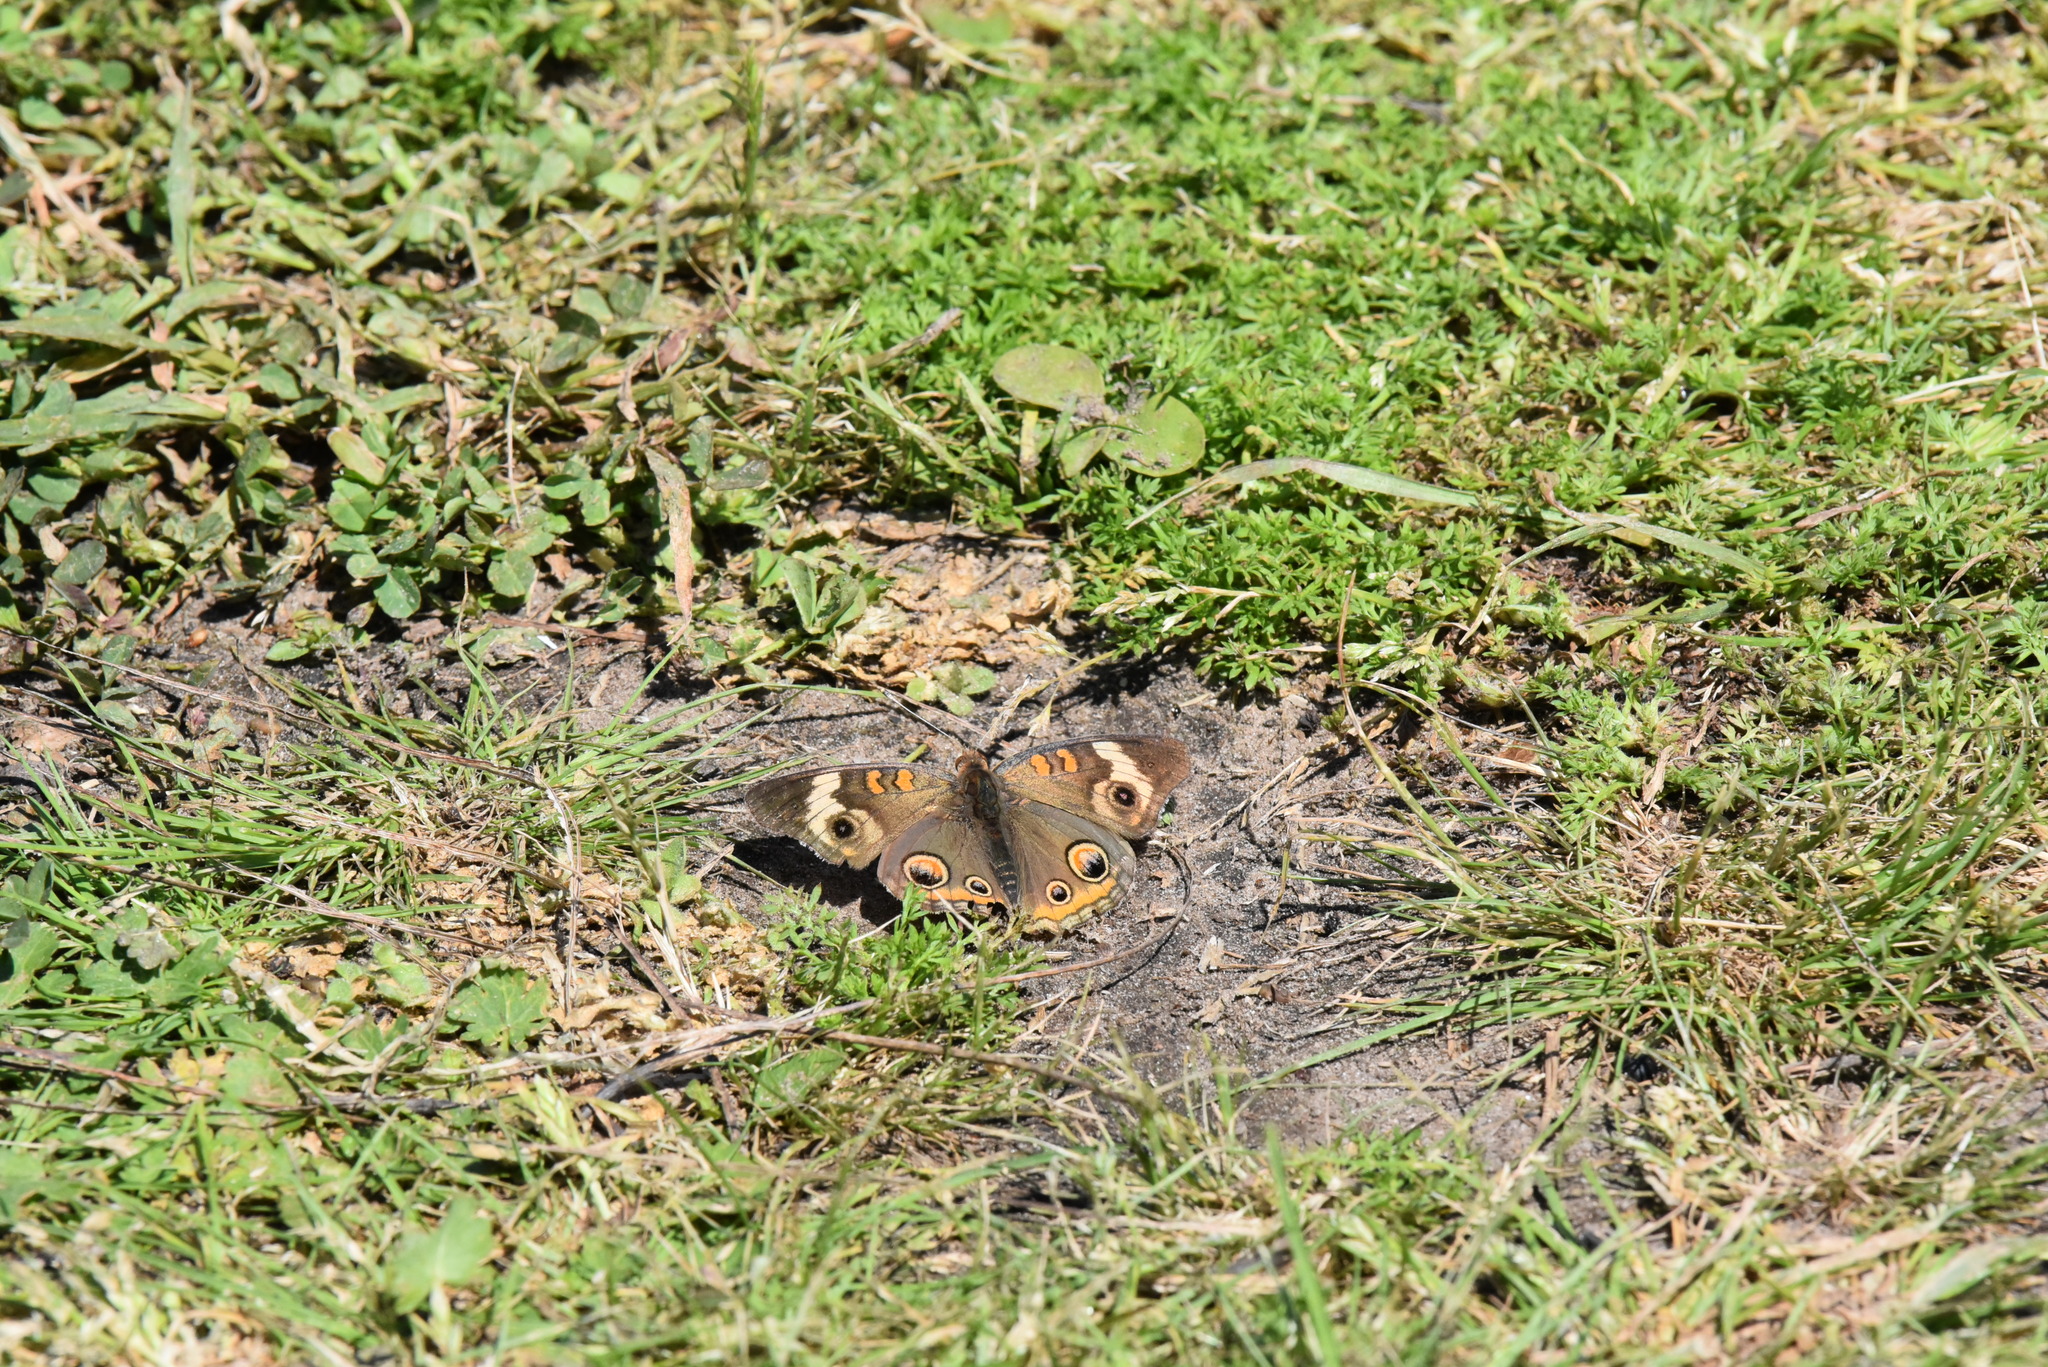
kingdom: Animalia
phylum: Arthropoda
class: Insecta
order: Lepidoptera
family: Nymphalidae
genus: Junonia
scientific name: Junonia coenia
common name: Common buckeye
